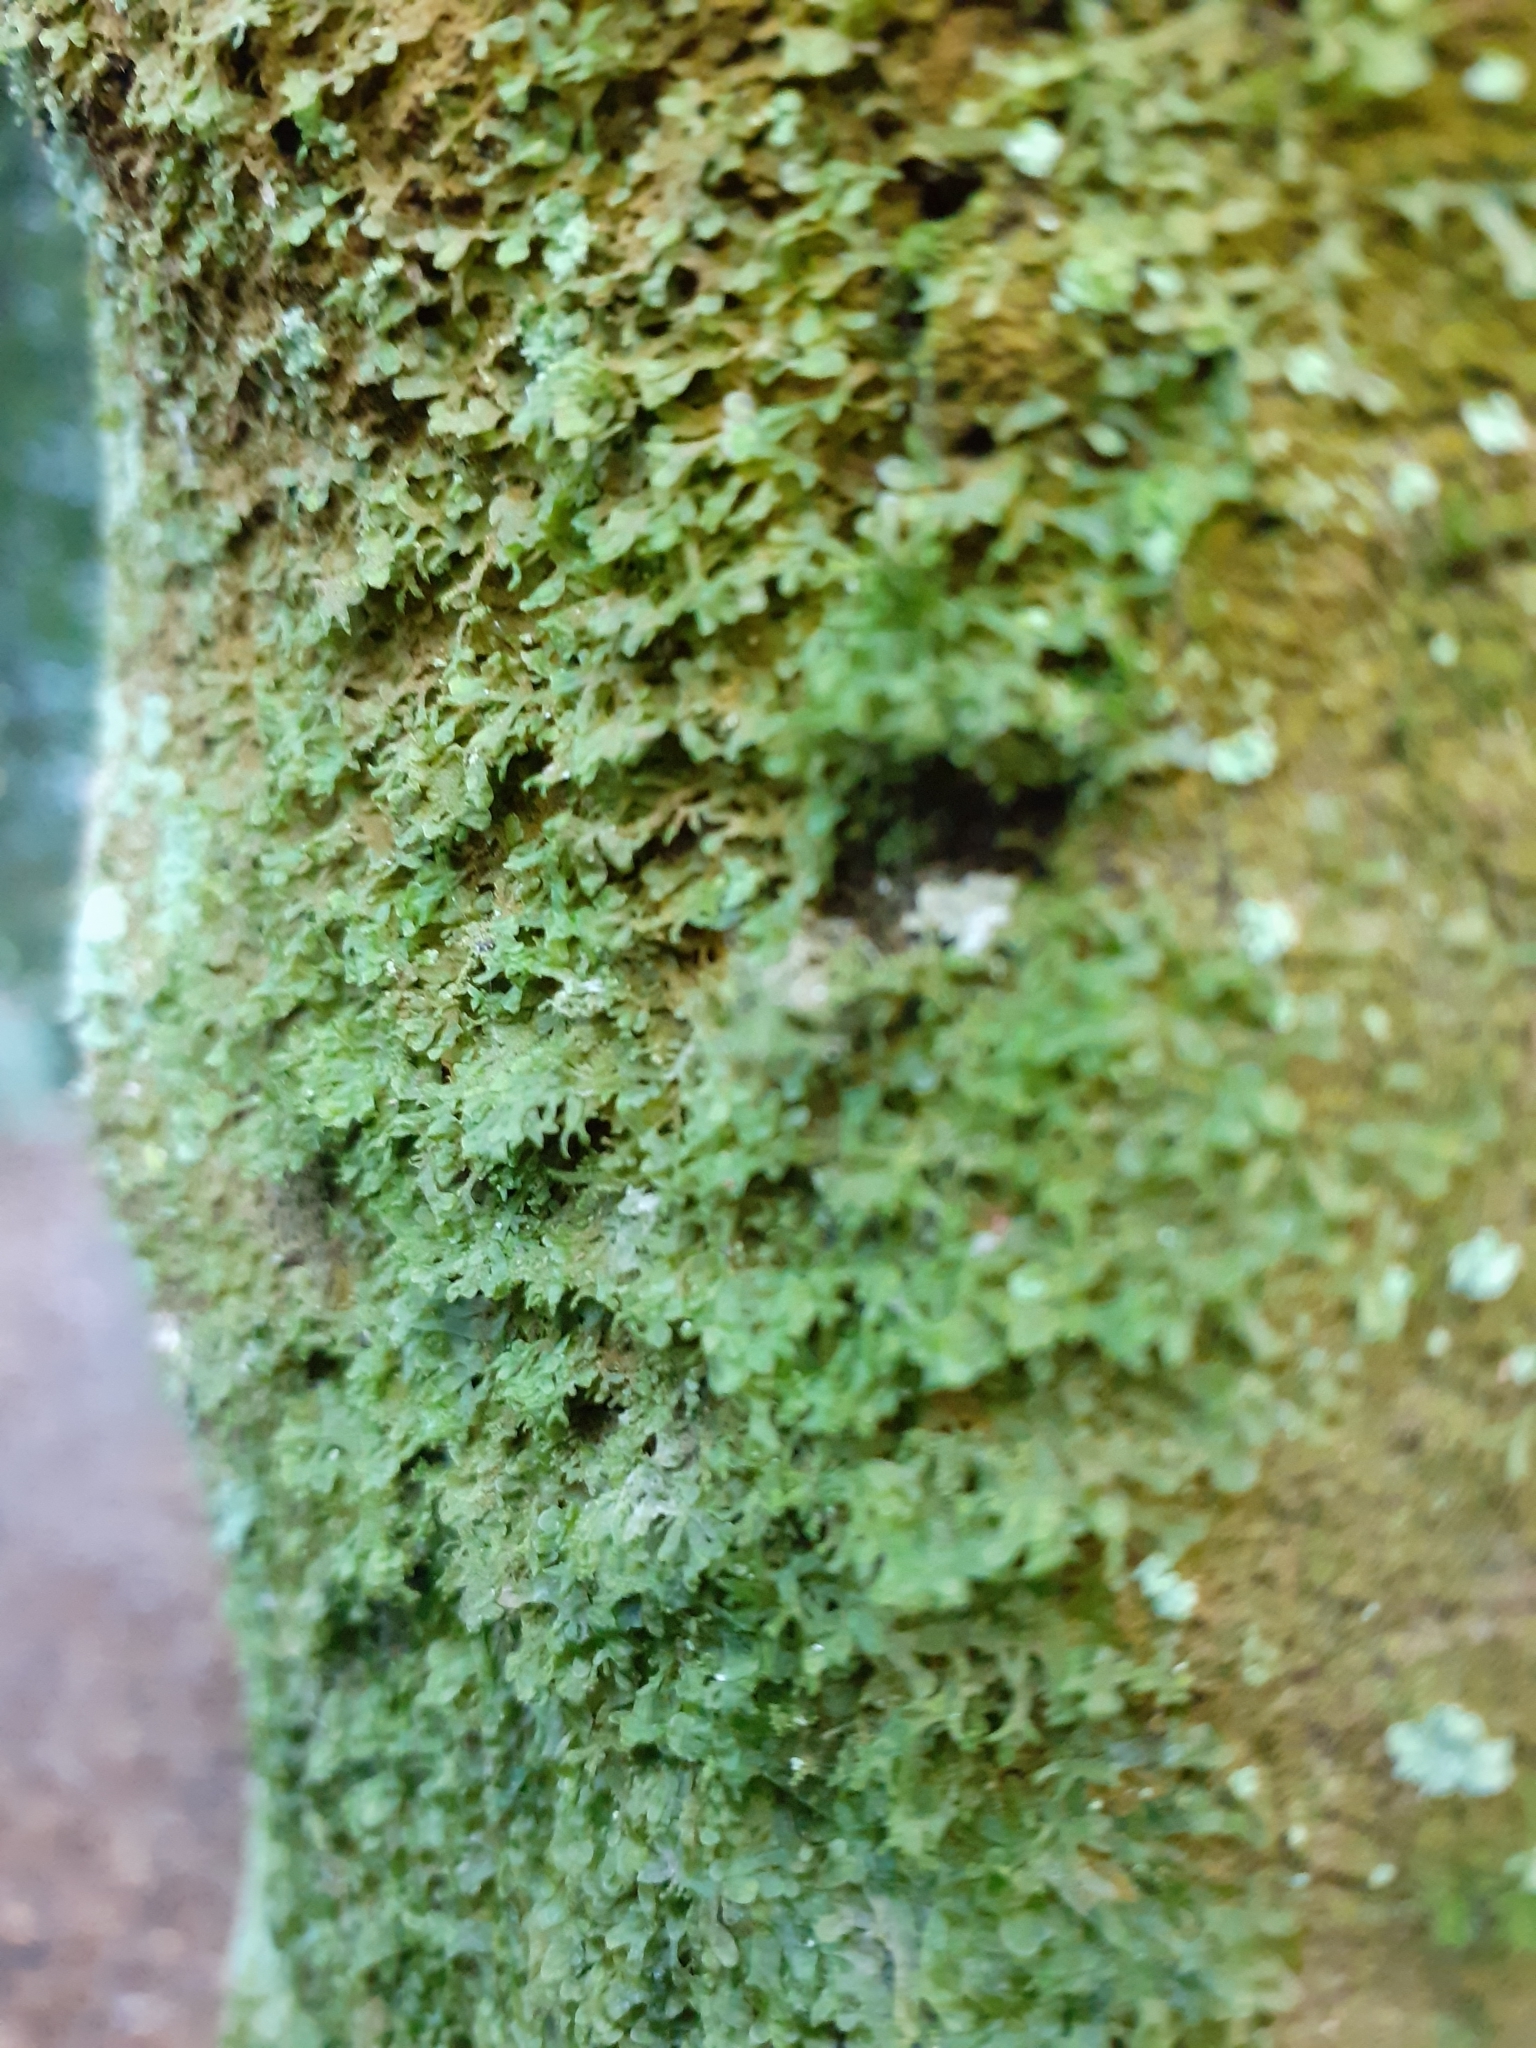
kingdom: Plantae
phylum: Marchantiophyta
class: Jungermanniopsida
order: Metzgeriales
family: Metzgeriaceae
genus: Metzgeria
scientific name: Metzgeria furcata
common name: Forked veilwort
